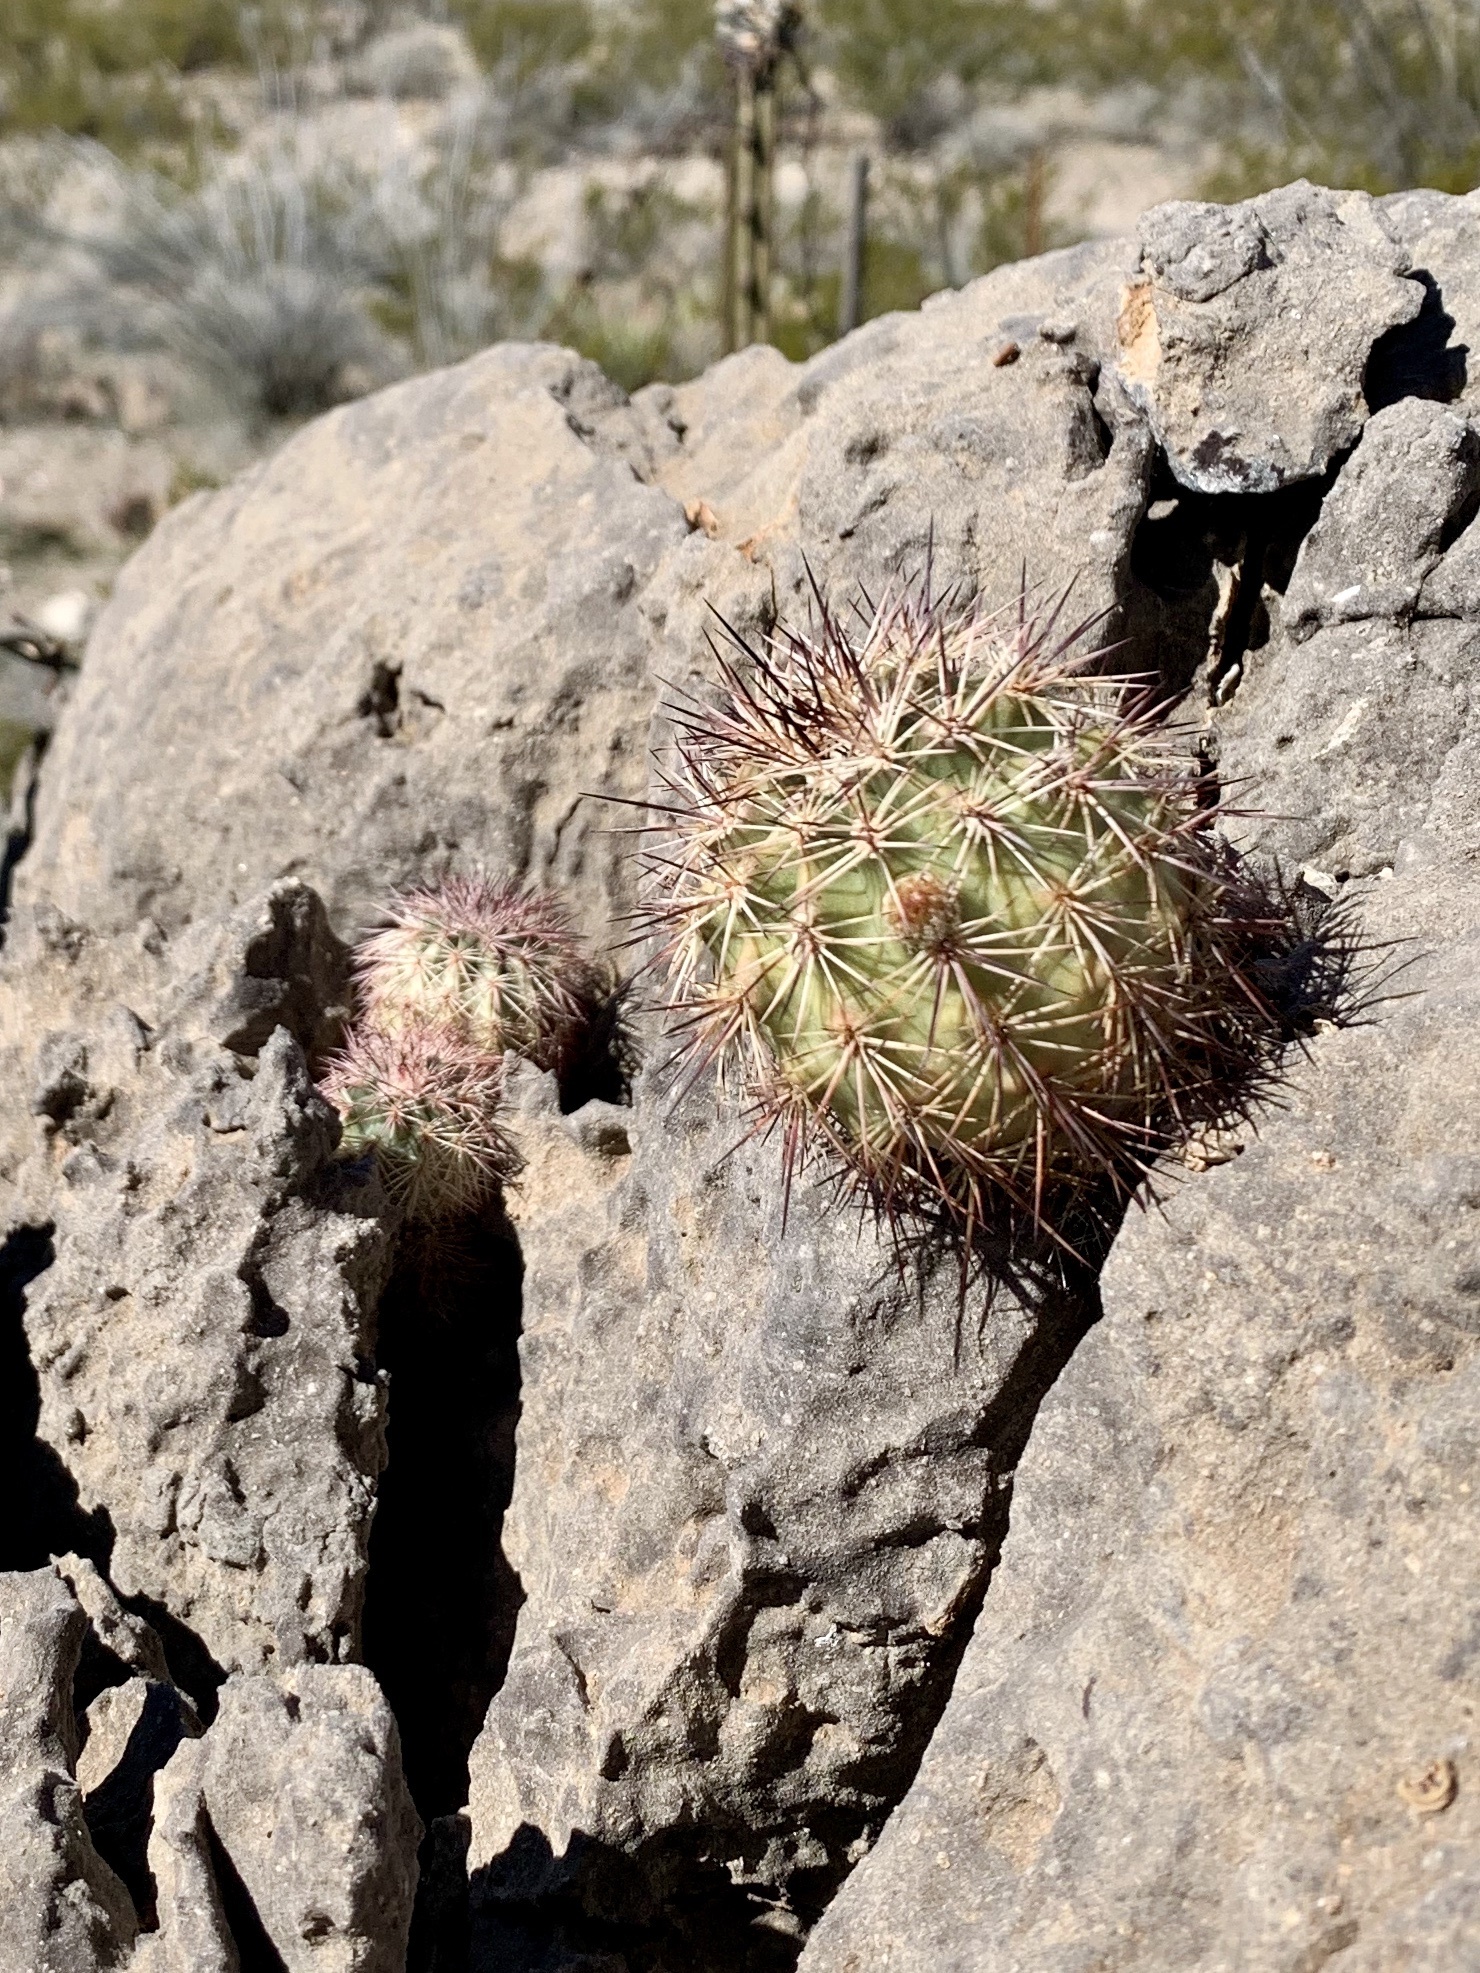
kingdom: Plantae
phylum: Tracheophyta
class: Magnoliopsida
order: Caryophyllales
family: Cactaceae
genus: Echinocereus
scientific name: Echinocereus roetteri
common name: Lloyd's hedgehog cactus
